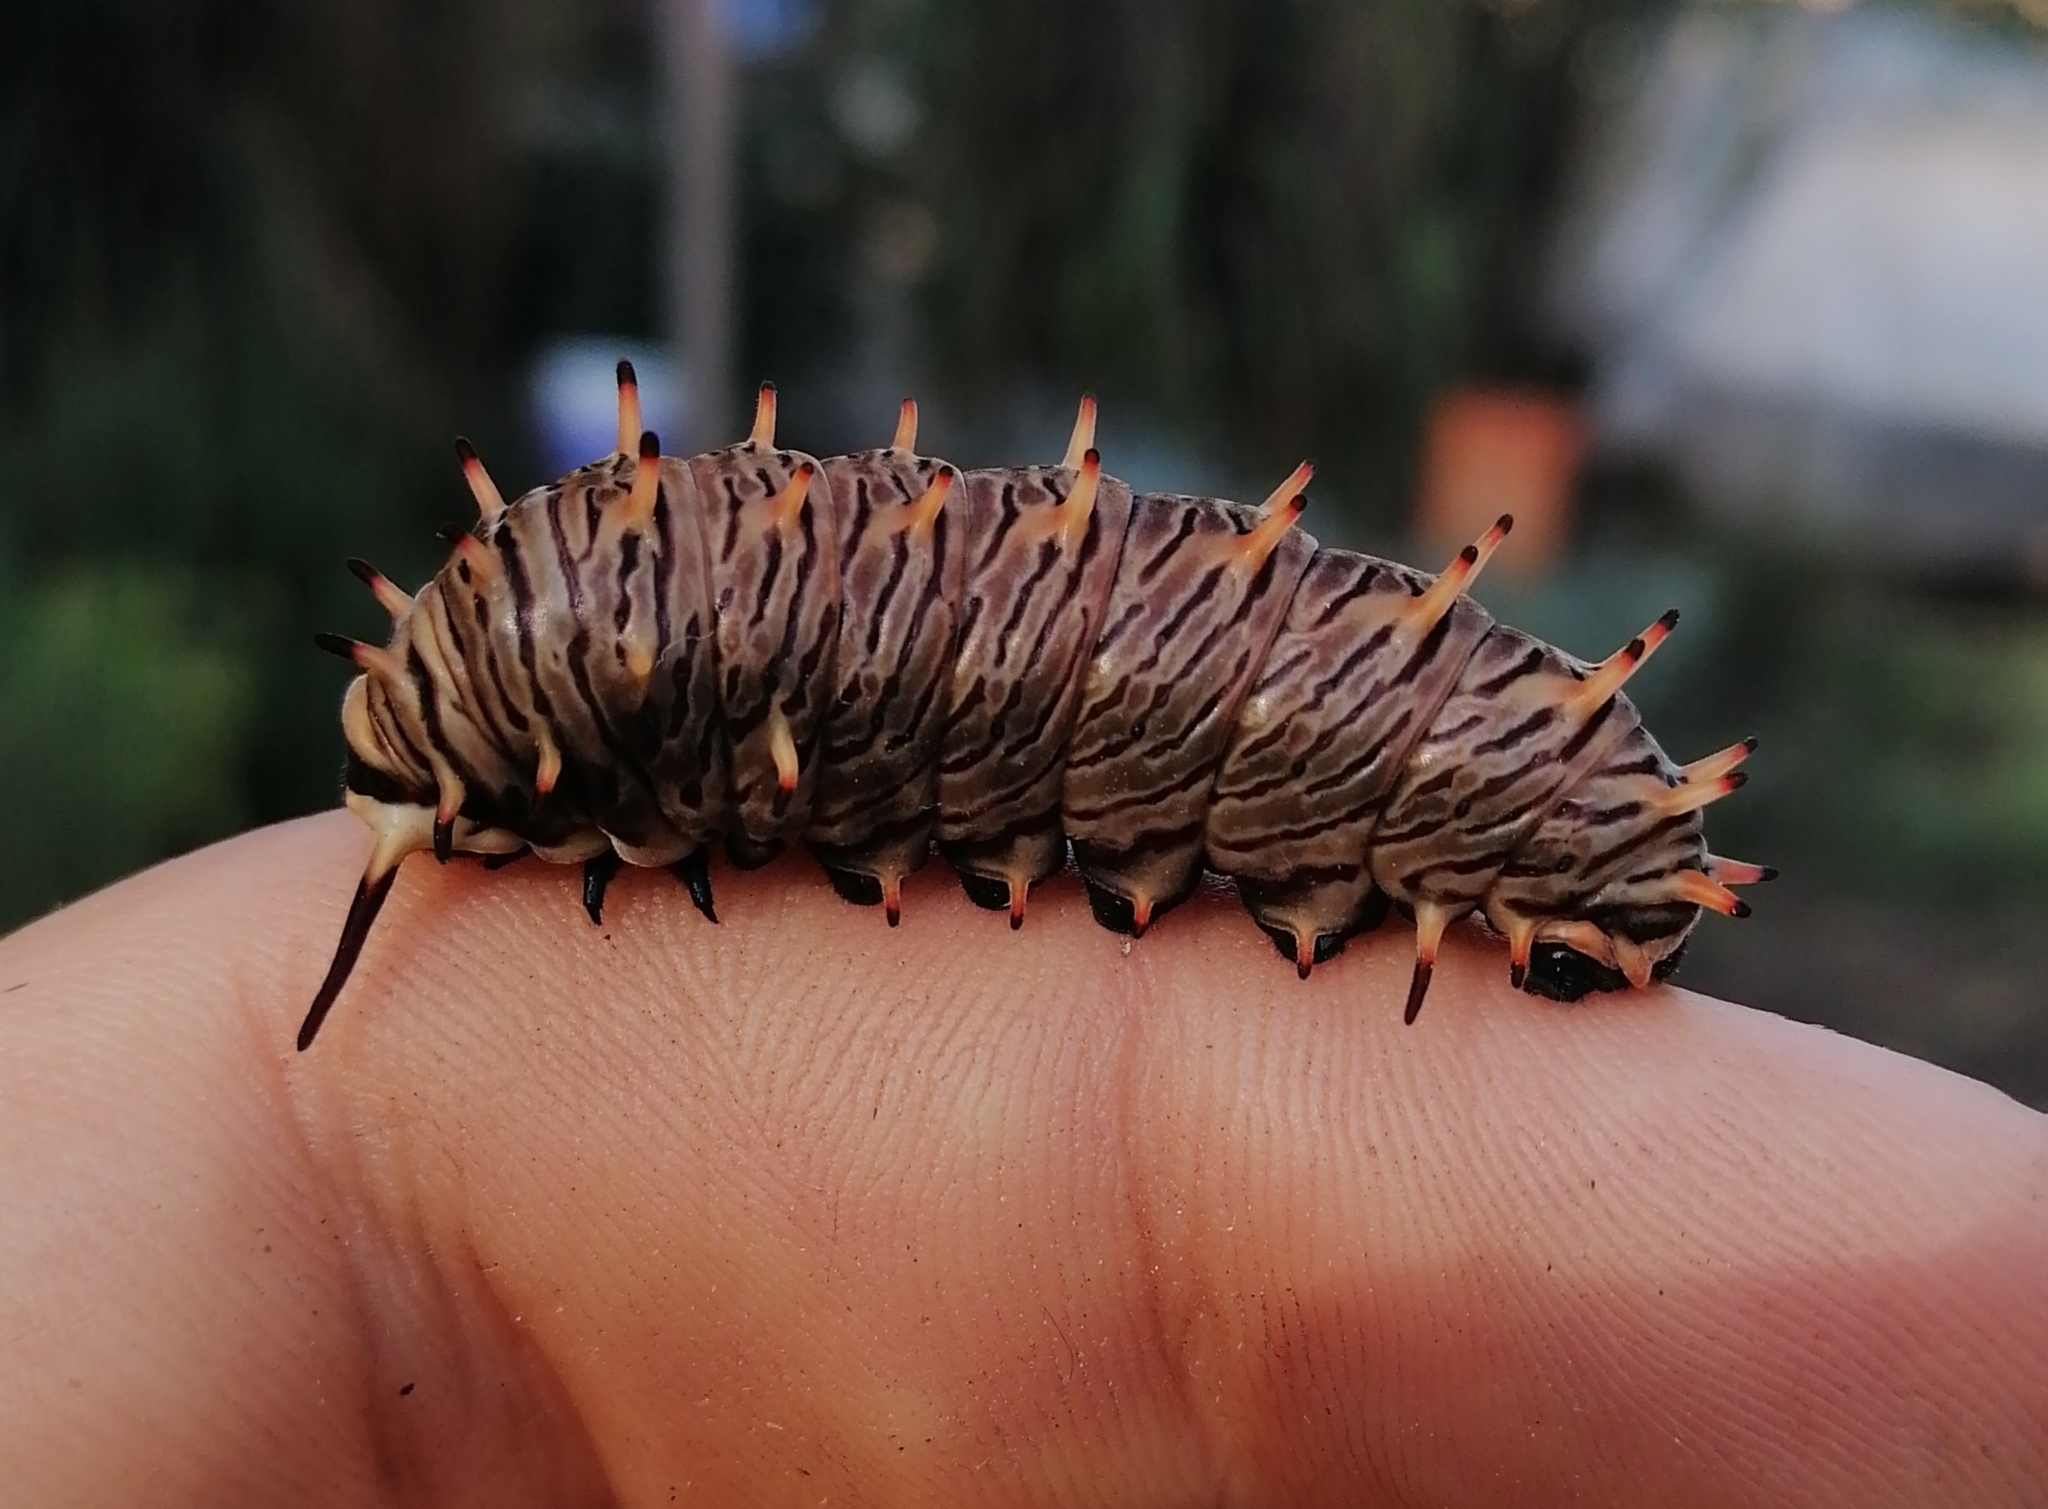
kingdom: Animalia
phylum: Arthropoda
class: Insecta
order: Lepidoptera
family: Papilionidae
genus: Battus
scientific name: Battus polydamas
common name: Polydamas swallowtail
